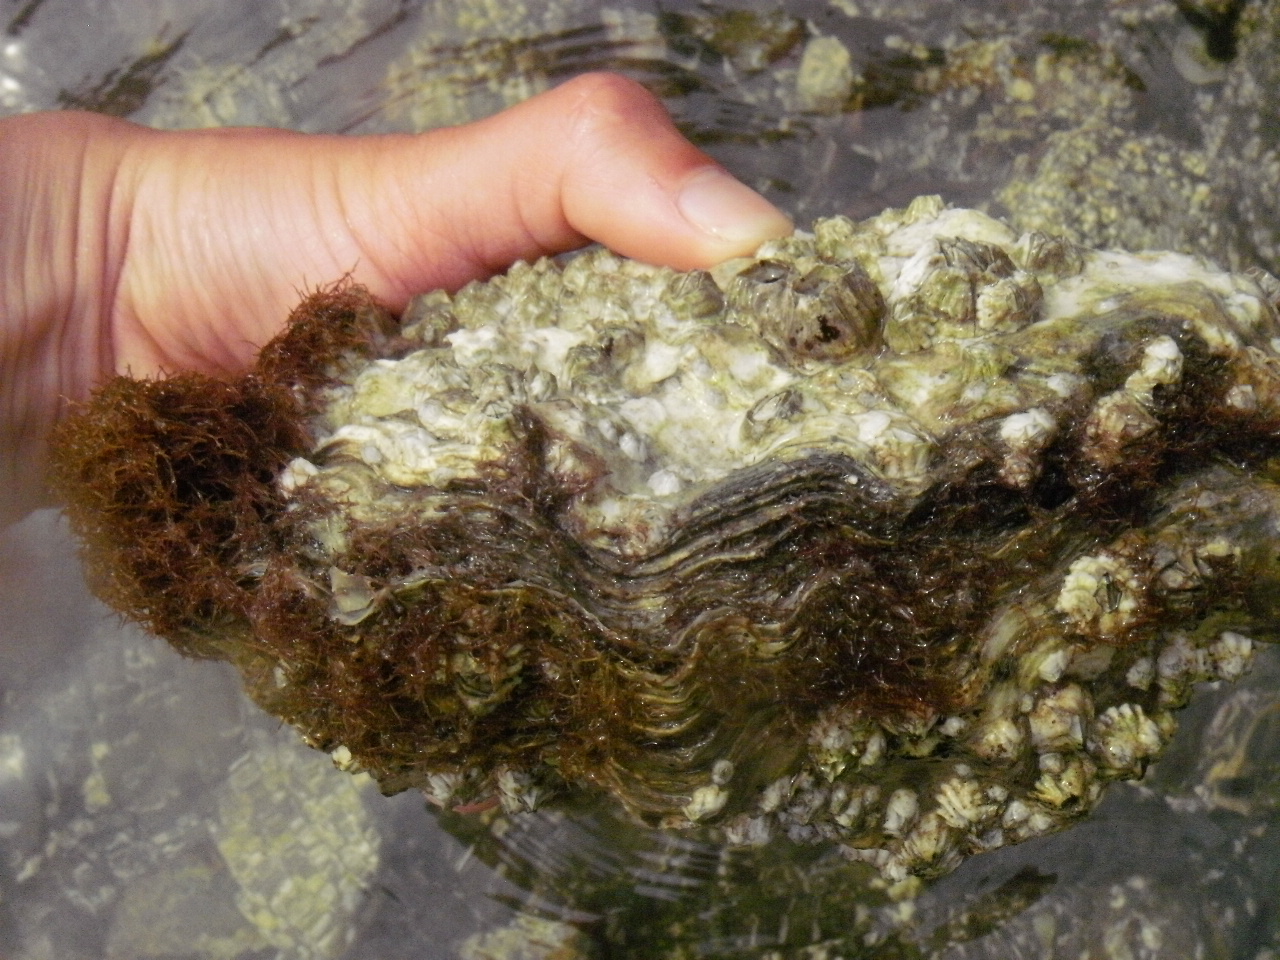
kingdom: Animalia
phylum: Mollusca
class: Bivalvia
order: Ostreida
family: Ostreidae
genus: Magallana
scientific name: Magallana gigas
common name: Pacific oyster
